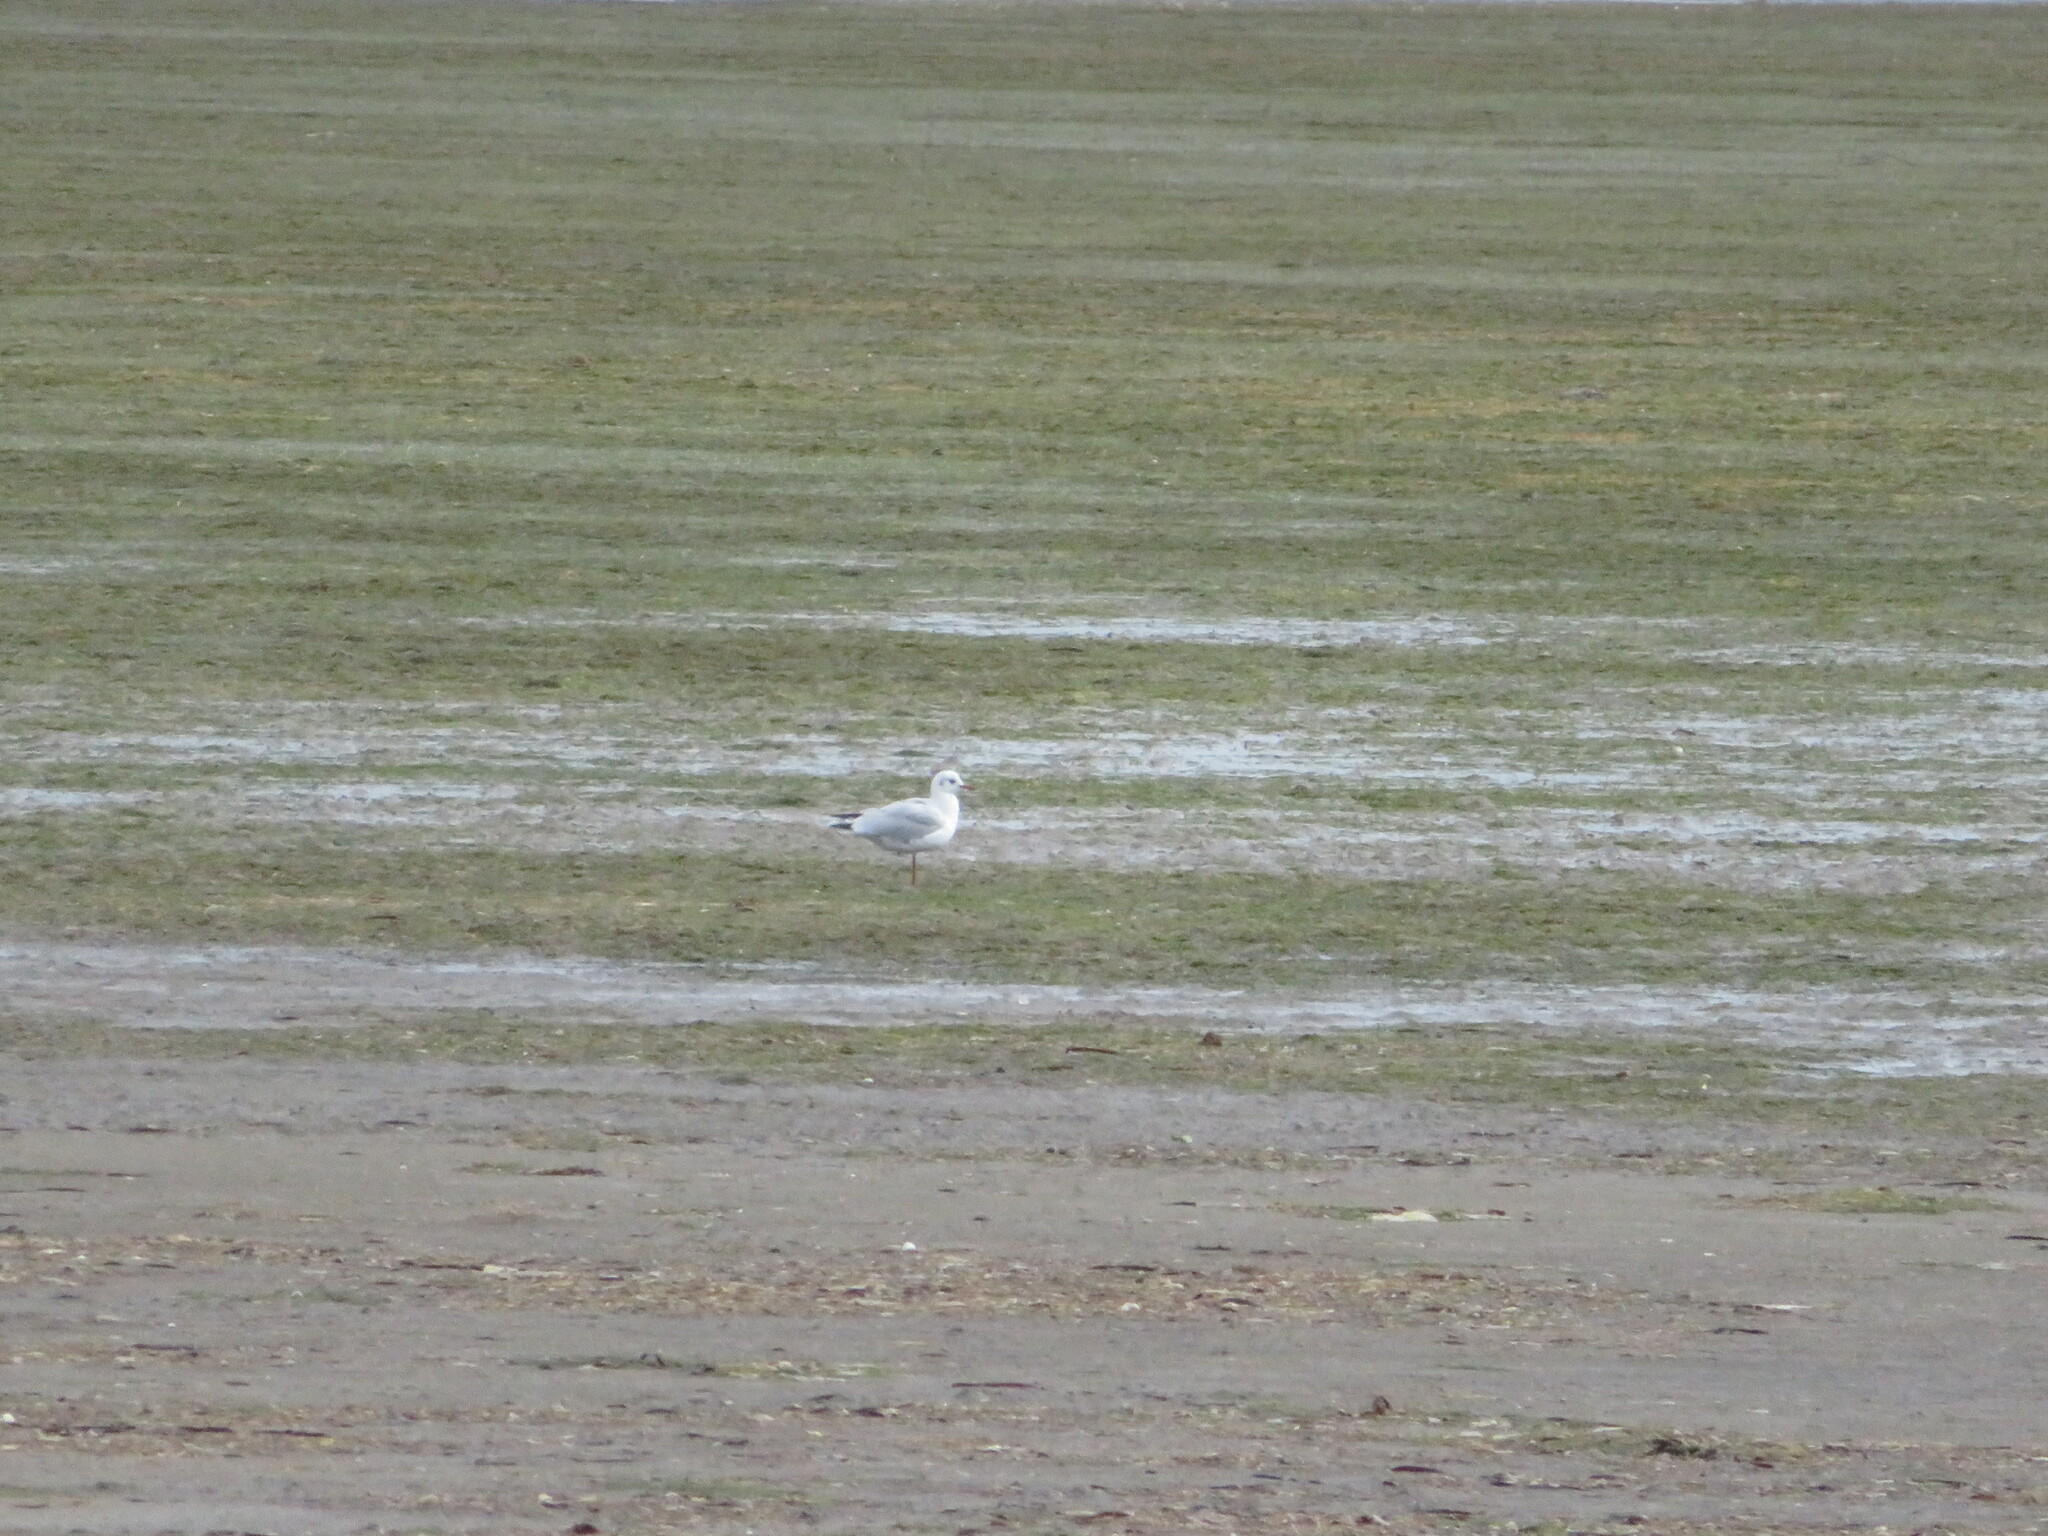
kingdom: Animalia
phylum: Chordata
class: Aves
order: Charadriiformes
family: Laridae
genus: Chroicocephalus
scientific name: Chroicocephalus ridibundus
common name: Black-headed gull
